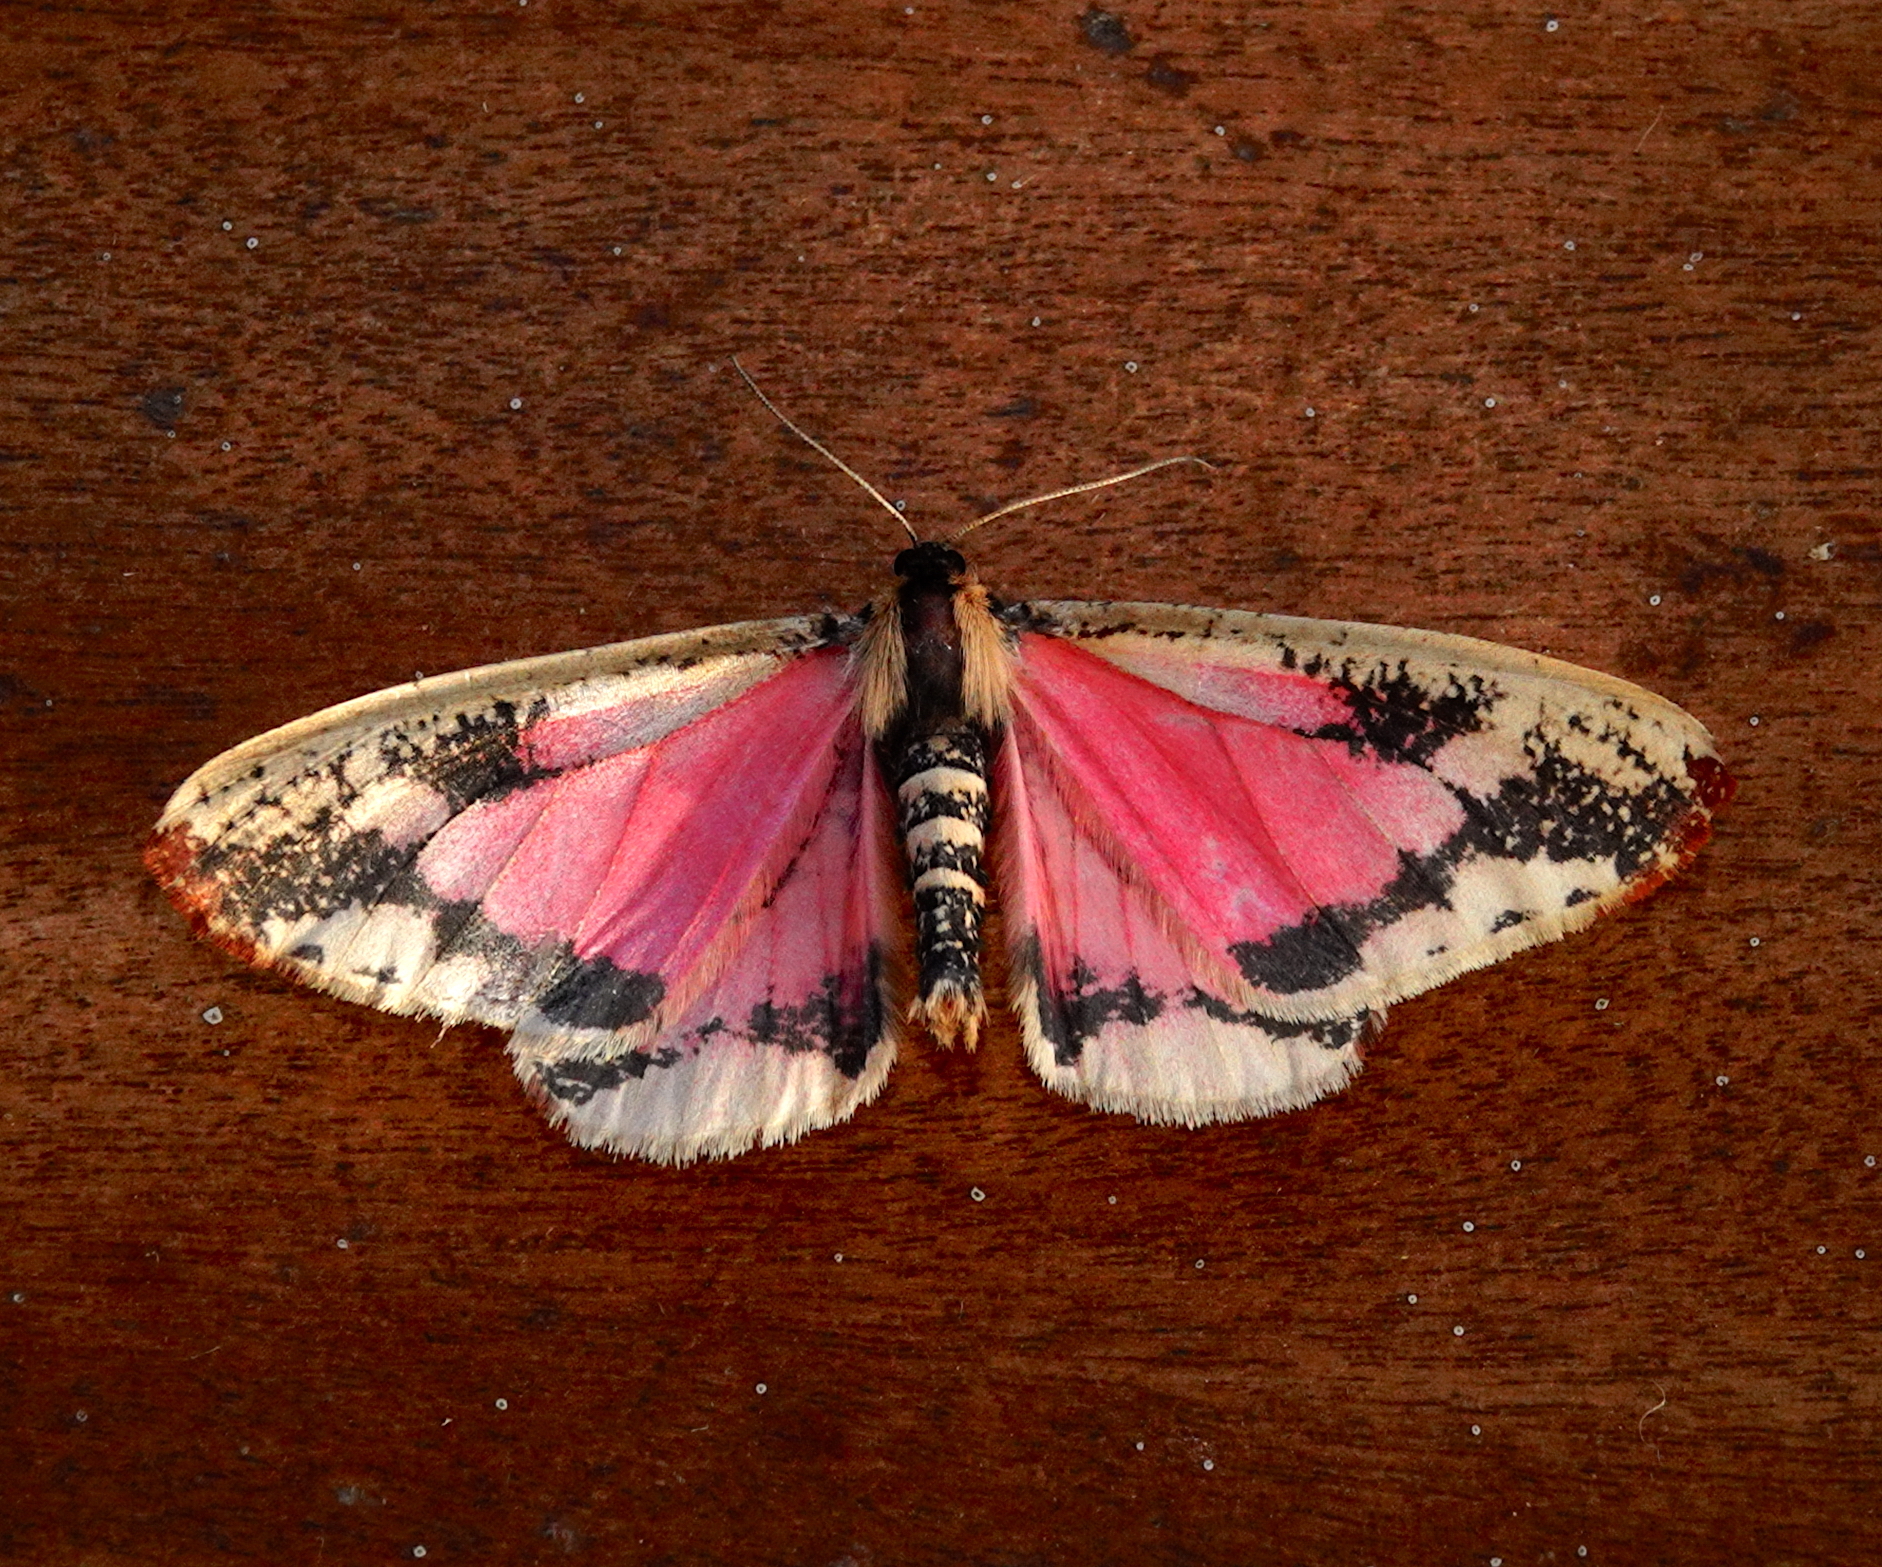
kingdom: Animalia
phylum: Arthropoda
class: Insecta
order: Lepidoptera
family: Geometridae
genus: Callipia
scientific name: Callipia karsholti
